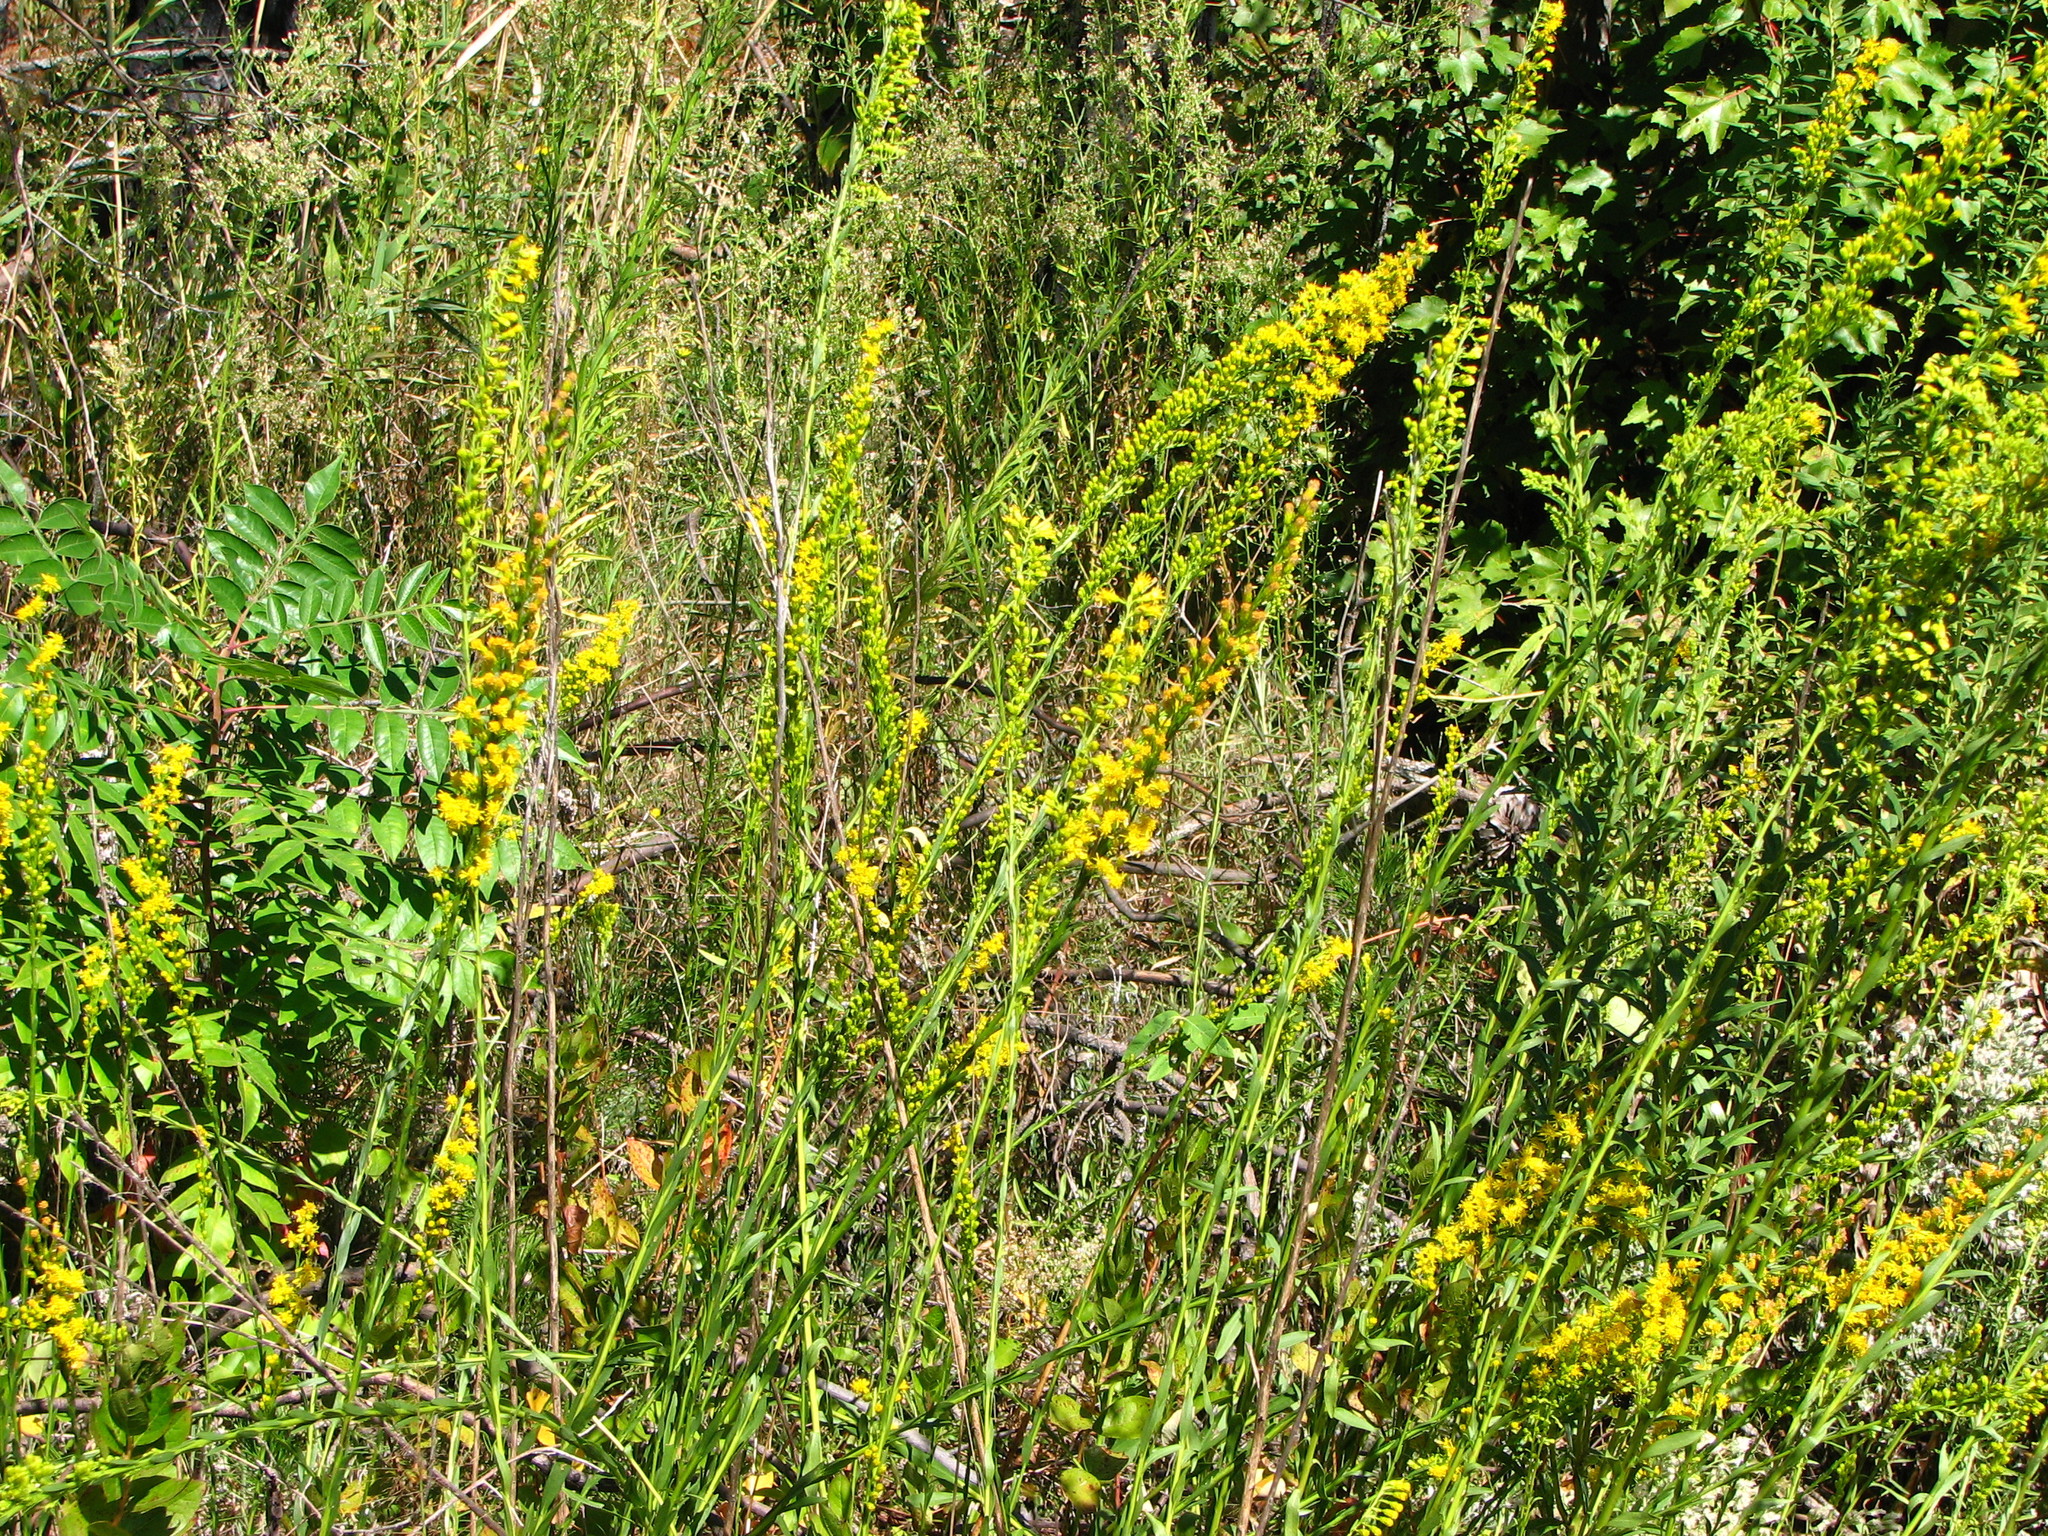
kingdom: Plantae
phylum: Tracheophyta
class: Magnoliopsida
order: Asterales
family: Asteraceae
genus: Solidago
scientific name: Solidago stricta
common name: Pine barren bog goldenrod
